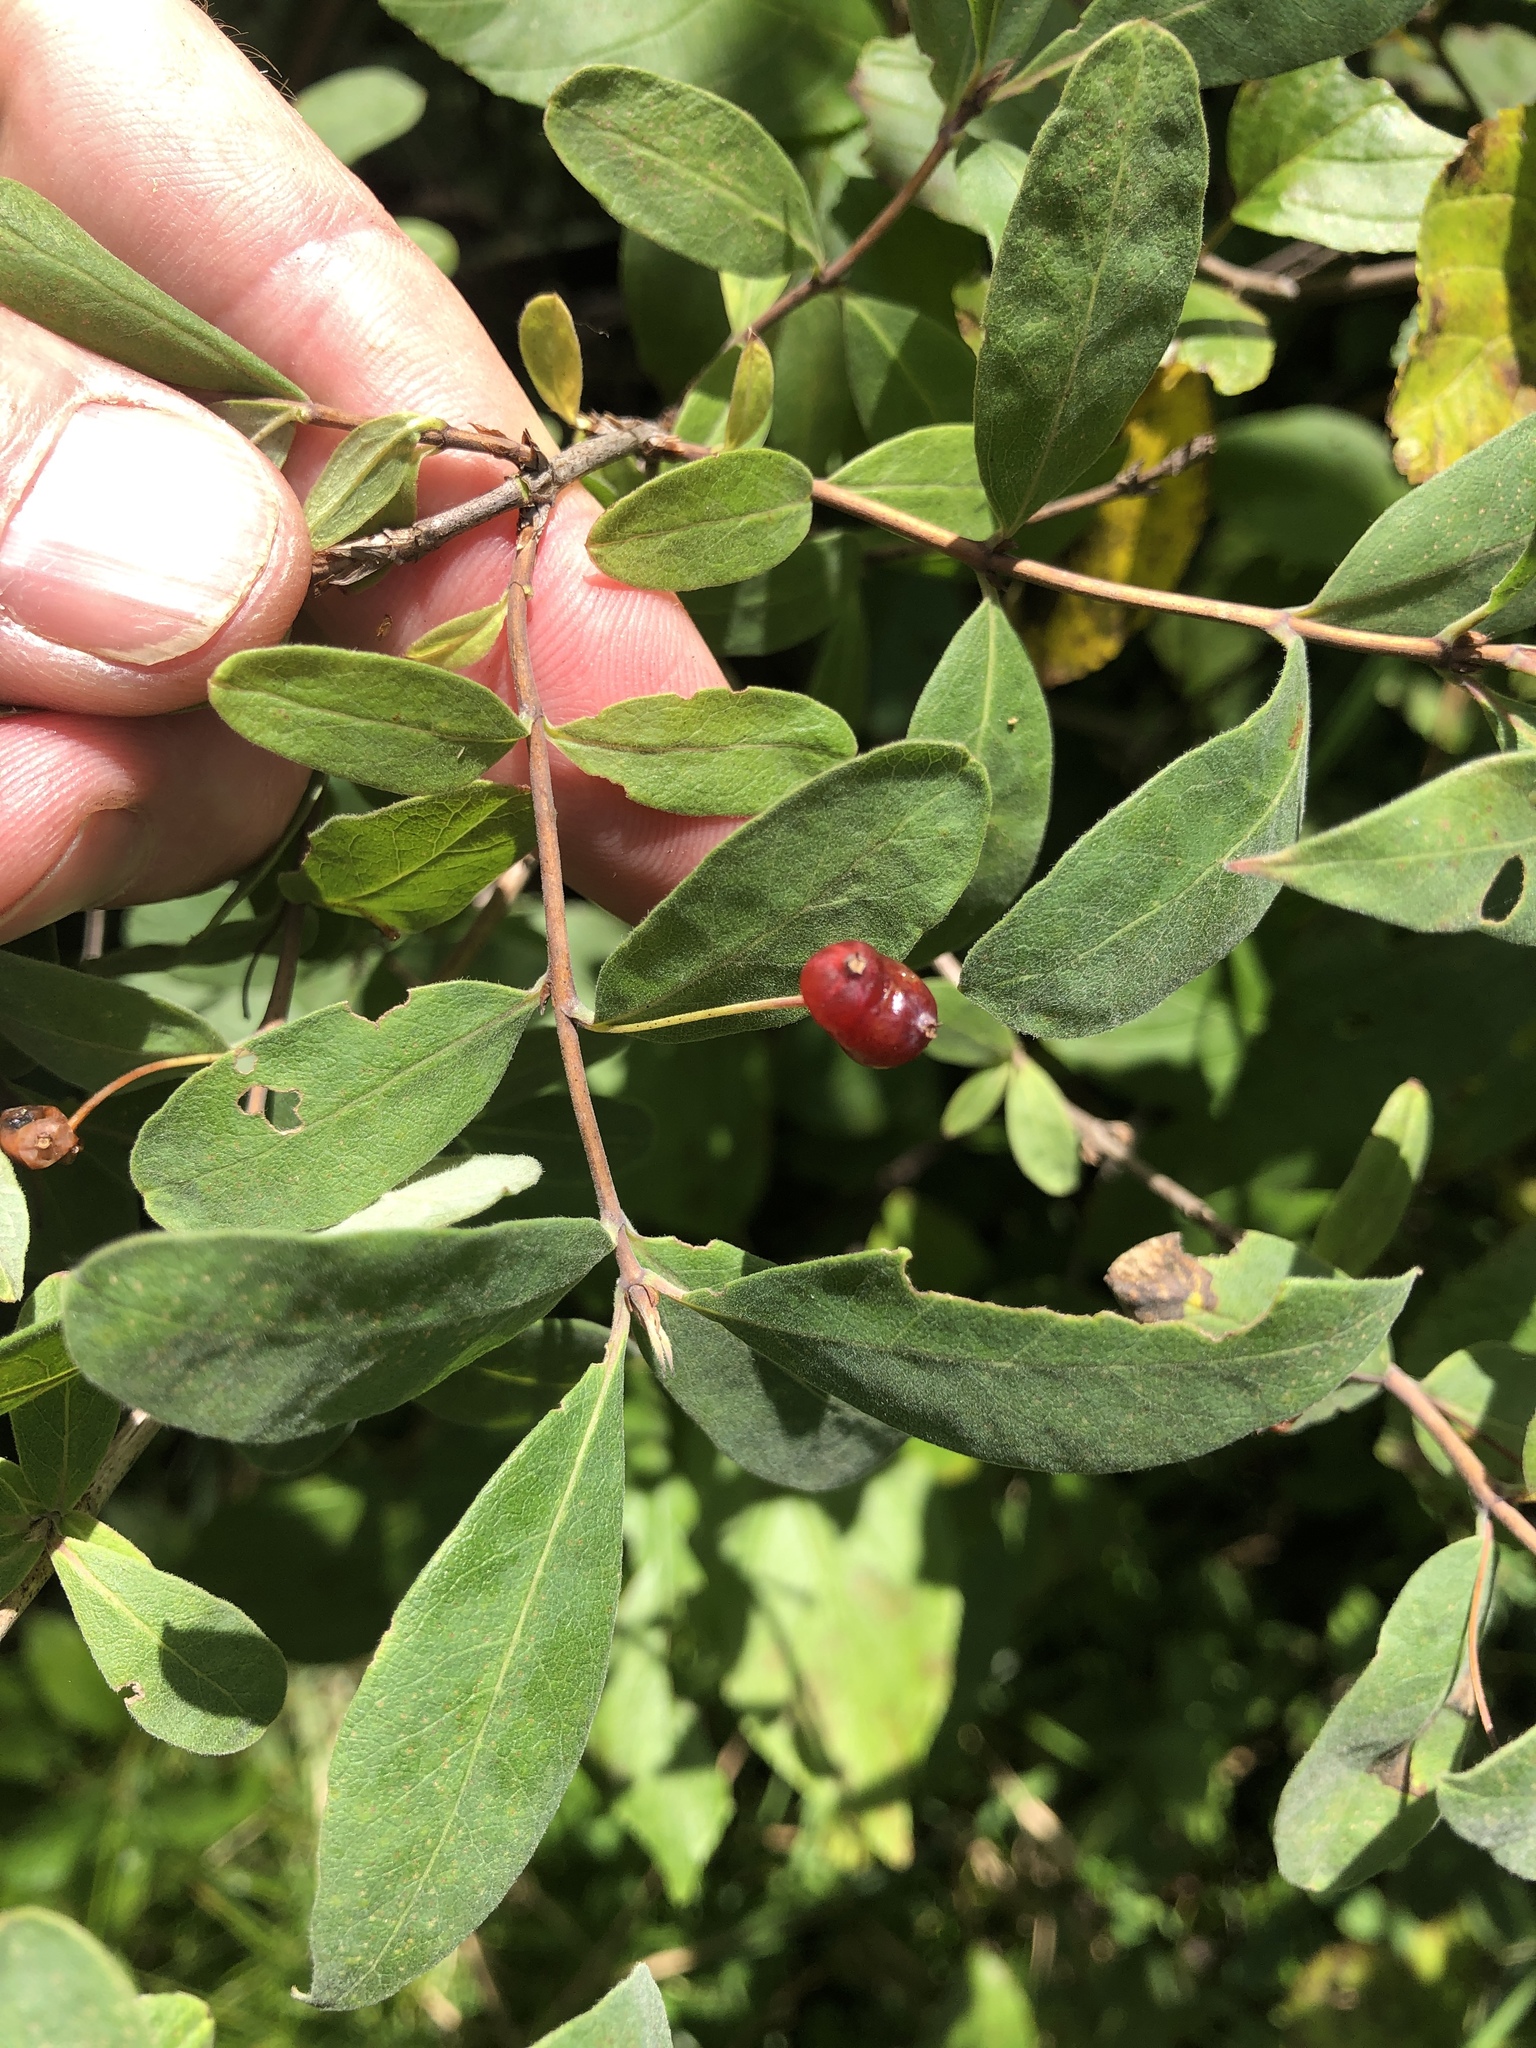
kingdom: Plantae
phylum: Tracheophyta
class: Magnoliopsida
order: Dipsacales
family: Caprifoliaceae
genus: Lonicera
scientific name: Lonicera villosa
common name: Mountain fly-honeysuckle
